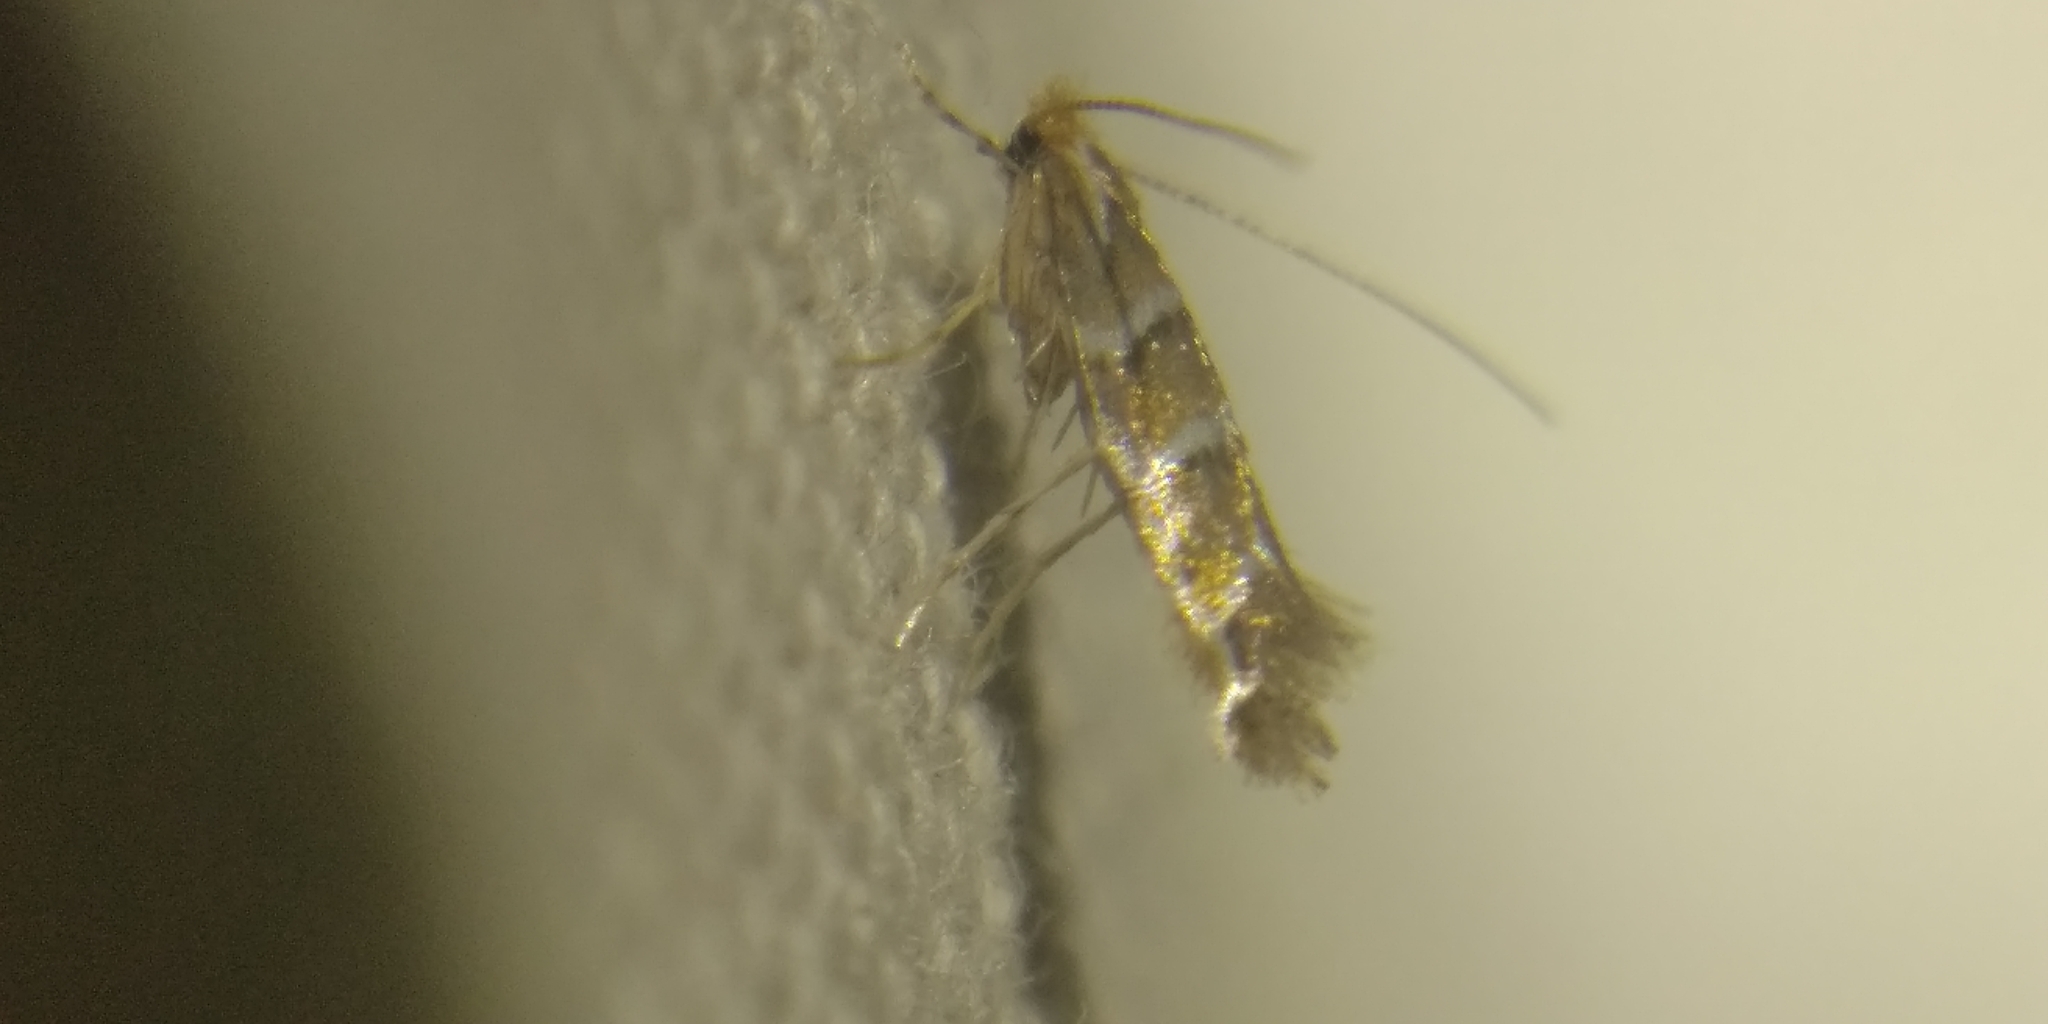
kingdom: Animalia
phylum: Arthropoda
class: Insecta
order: Lepidoptera
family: Gracillariidae
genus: Cameraria
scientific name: Cameraria ohridella
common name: Horse-chestnut leaf-miner
